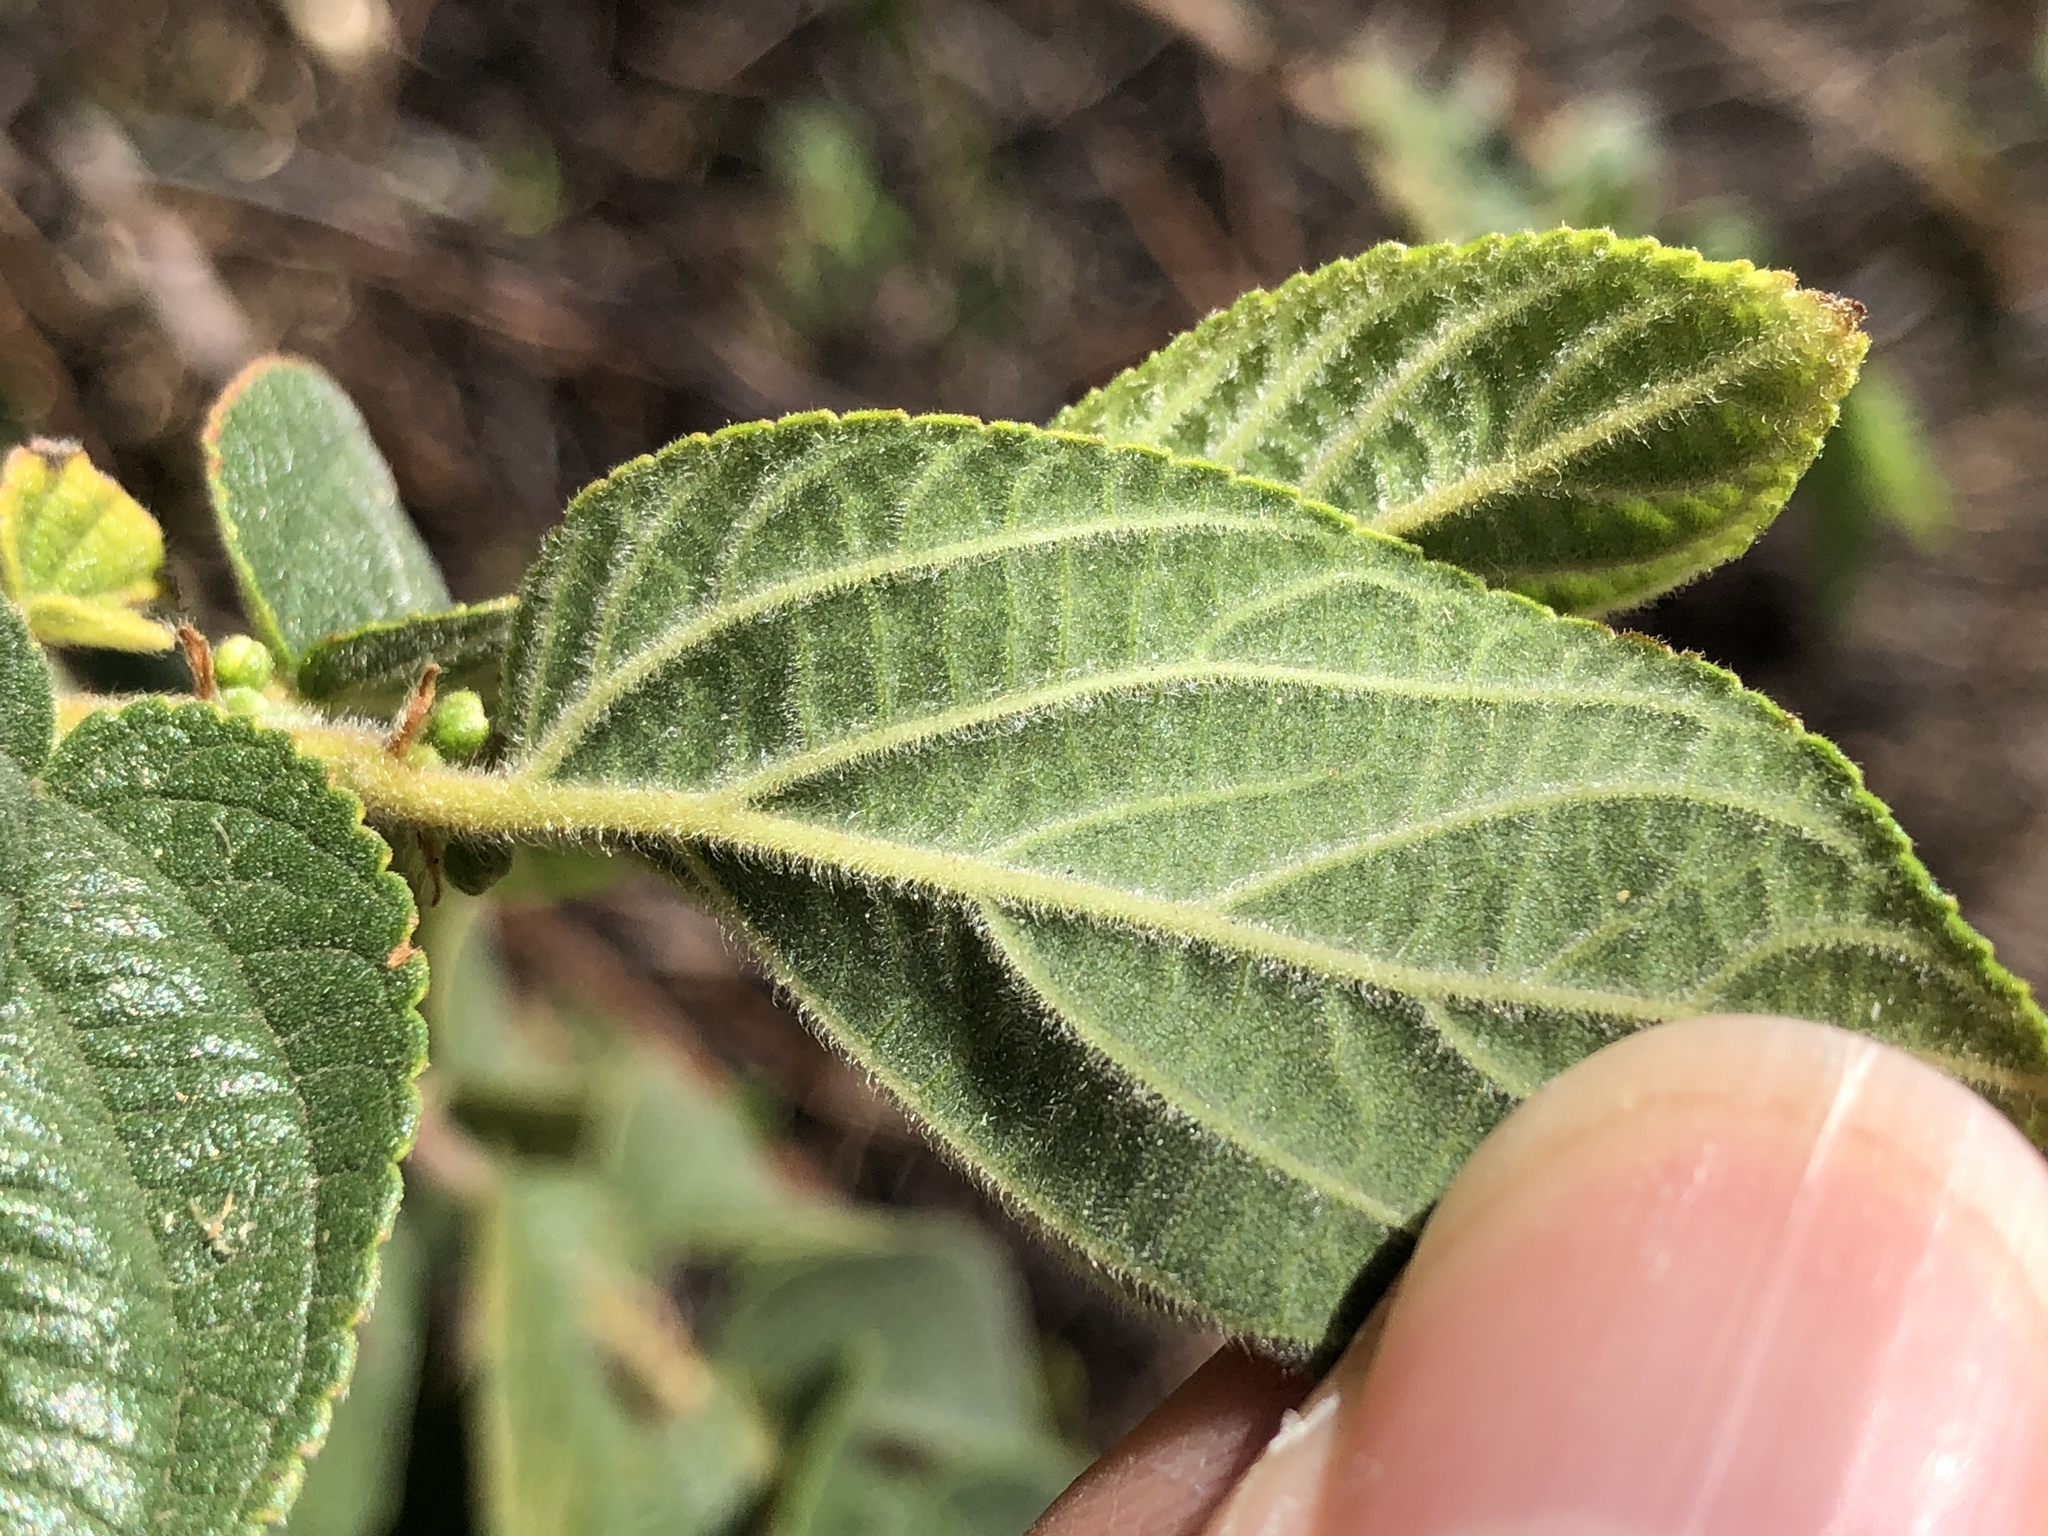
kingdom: Plantae
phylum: Tracheophyta
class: Magnoliopsida
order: Rosales
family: Cannabaceae
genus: Trema
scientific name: Trema tomentosum
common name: Peach-leaf-poisonbush
